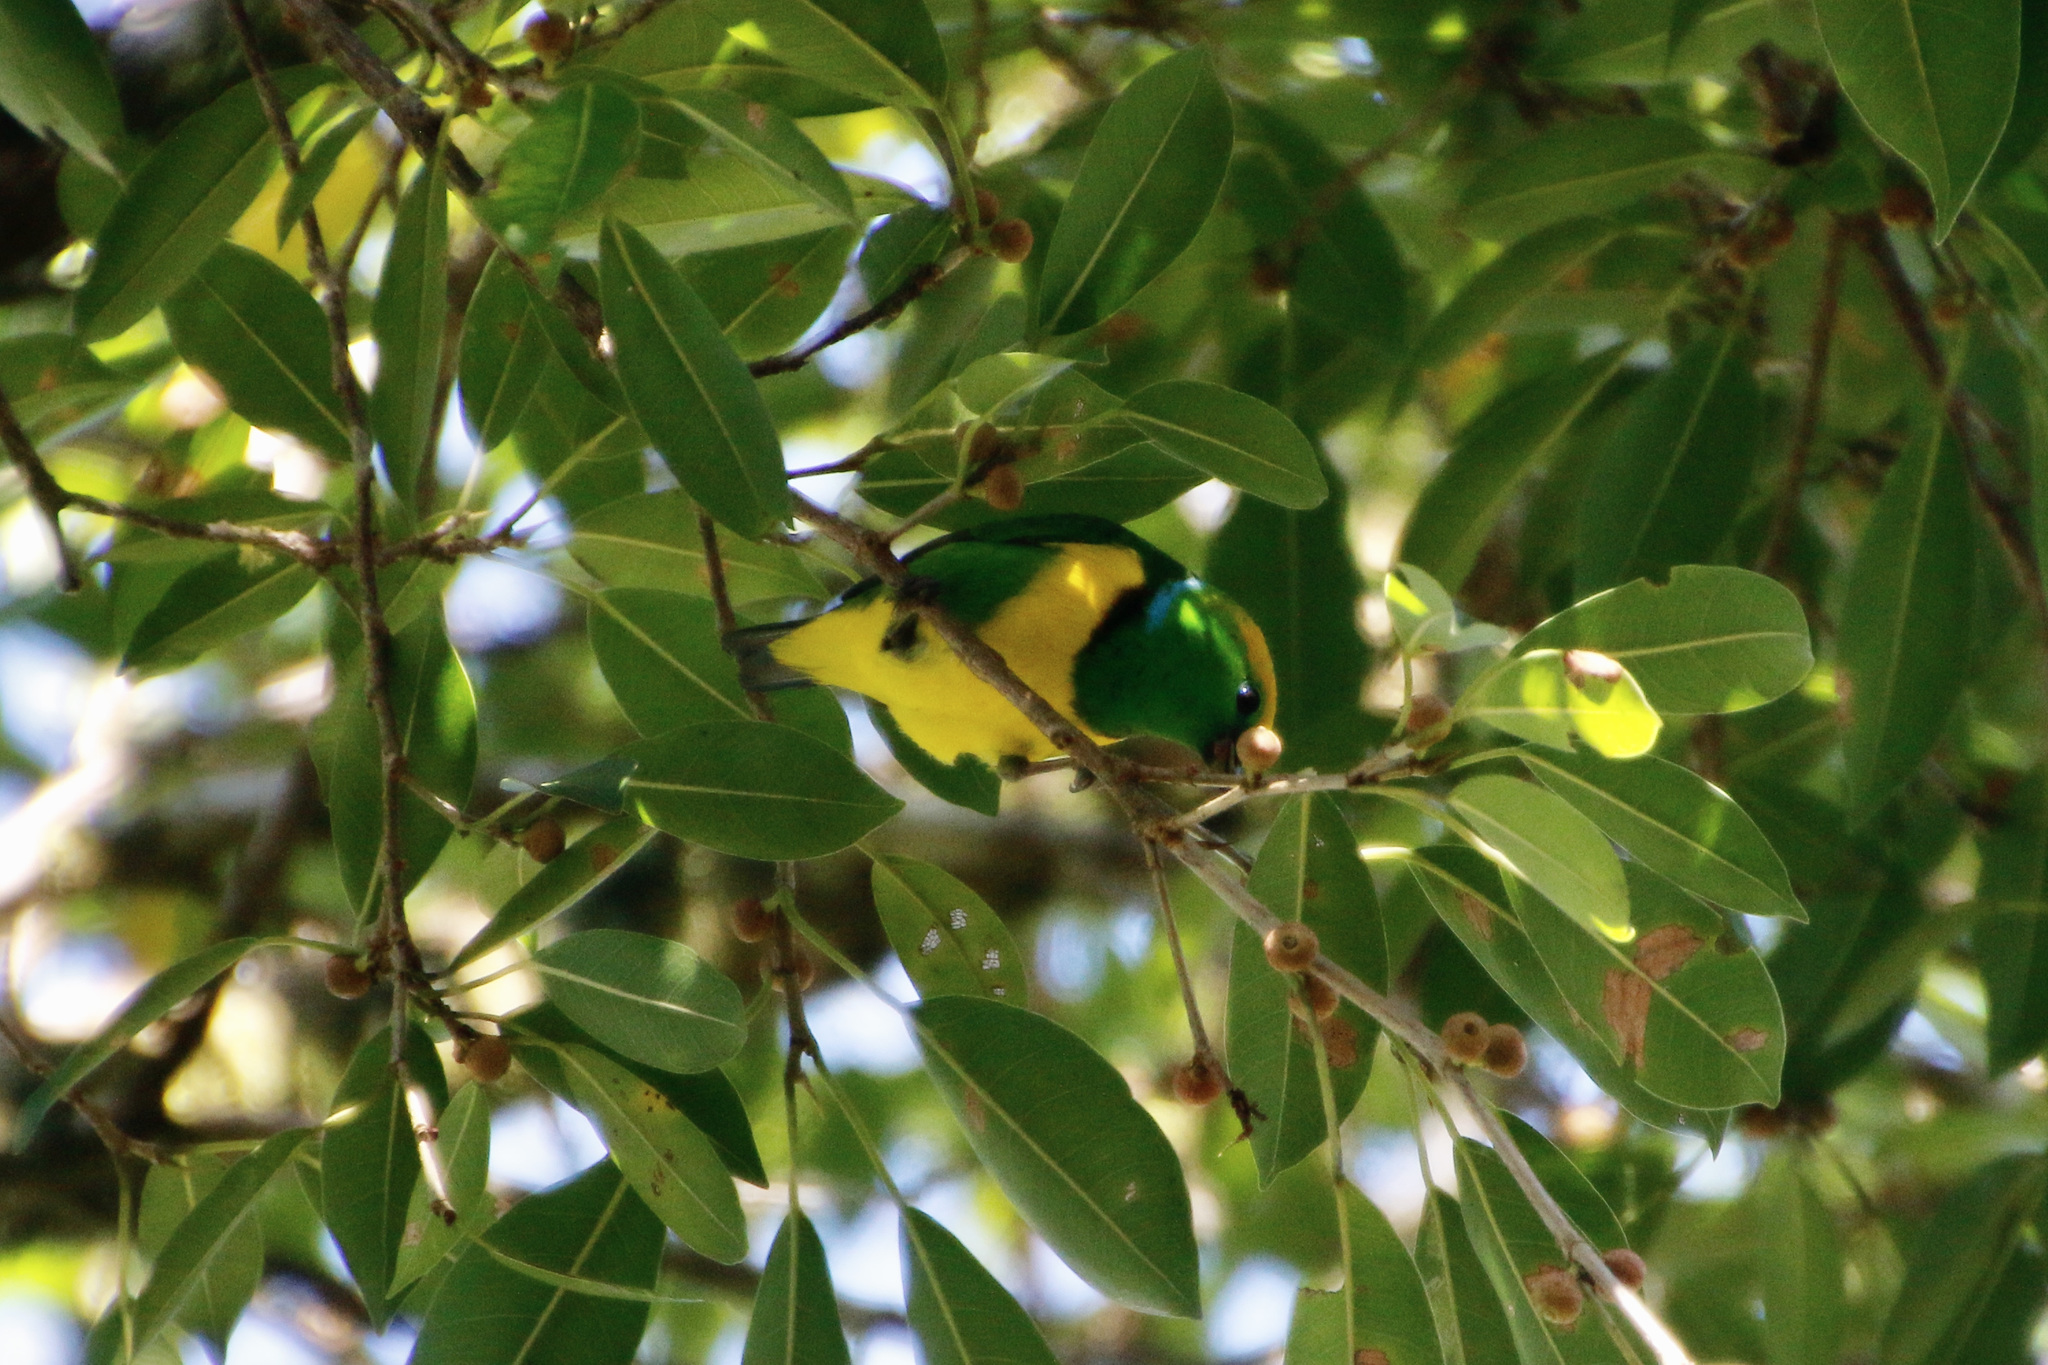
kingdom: Animalia
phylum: Chordata
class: Aves
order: Passeriformes
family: Fringillidae
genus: Chlorophonia
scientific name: Chlorophonia callophrys
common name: Golden-browed chlorophonia
